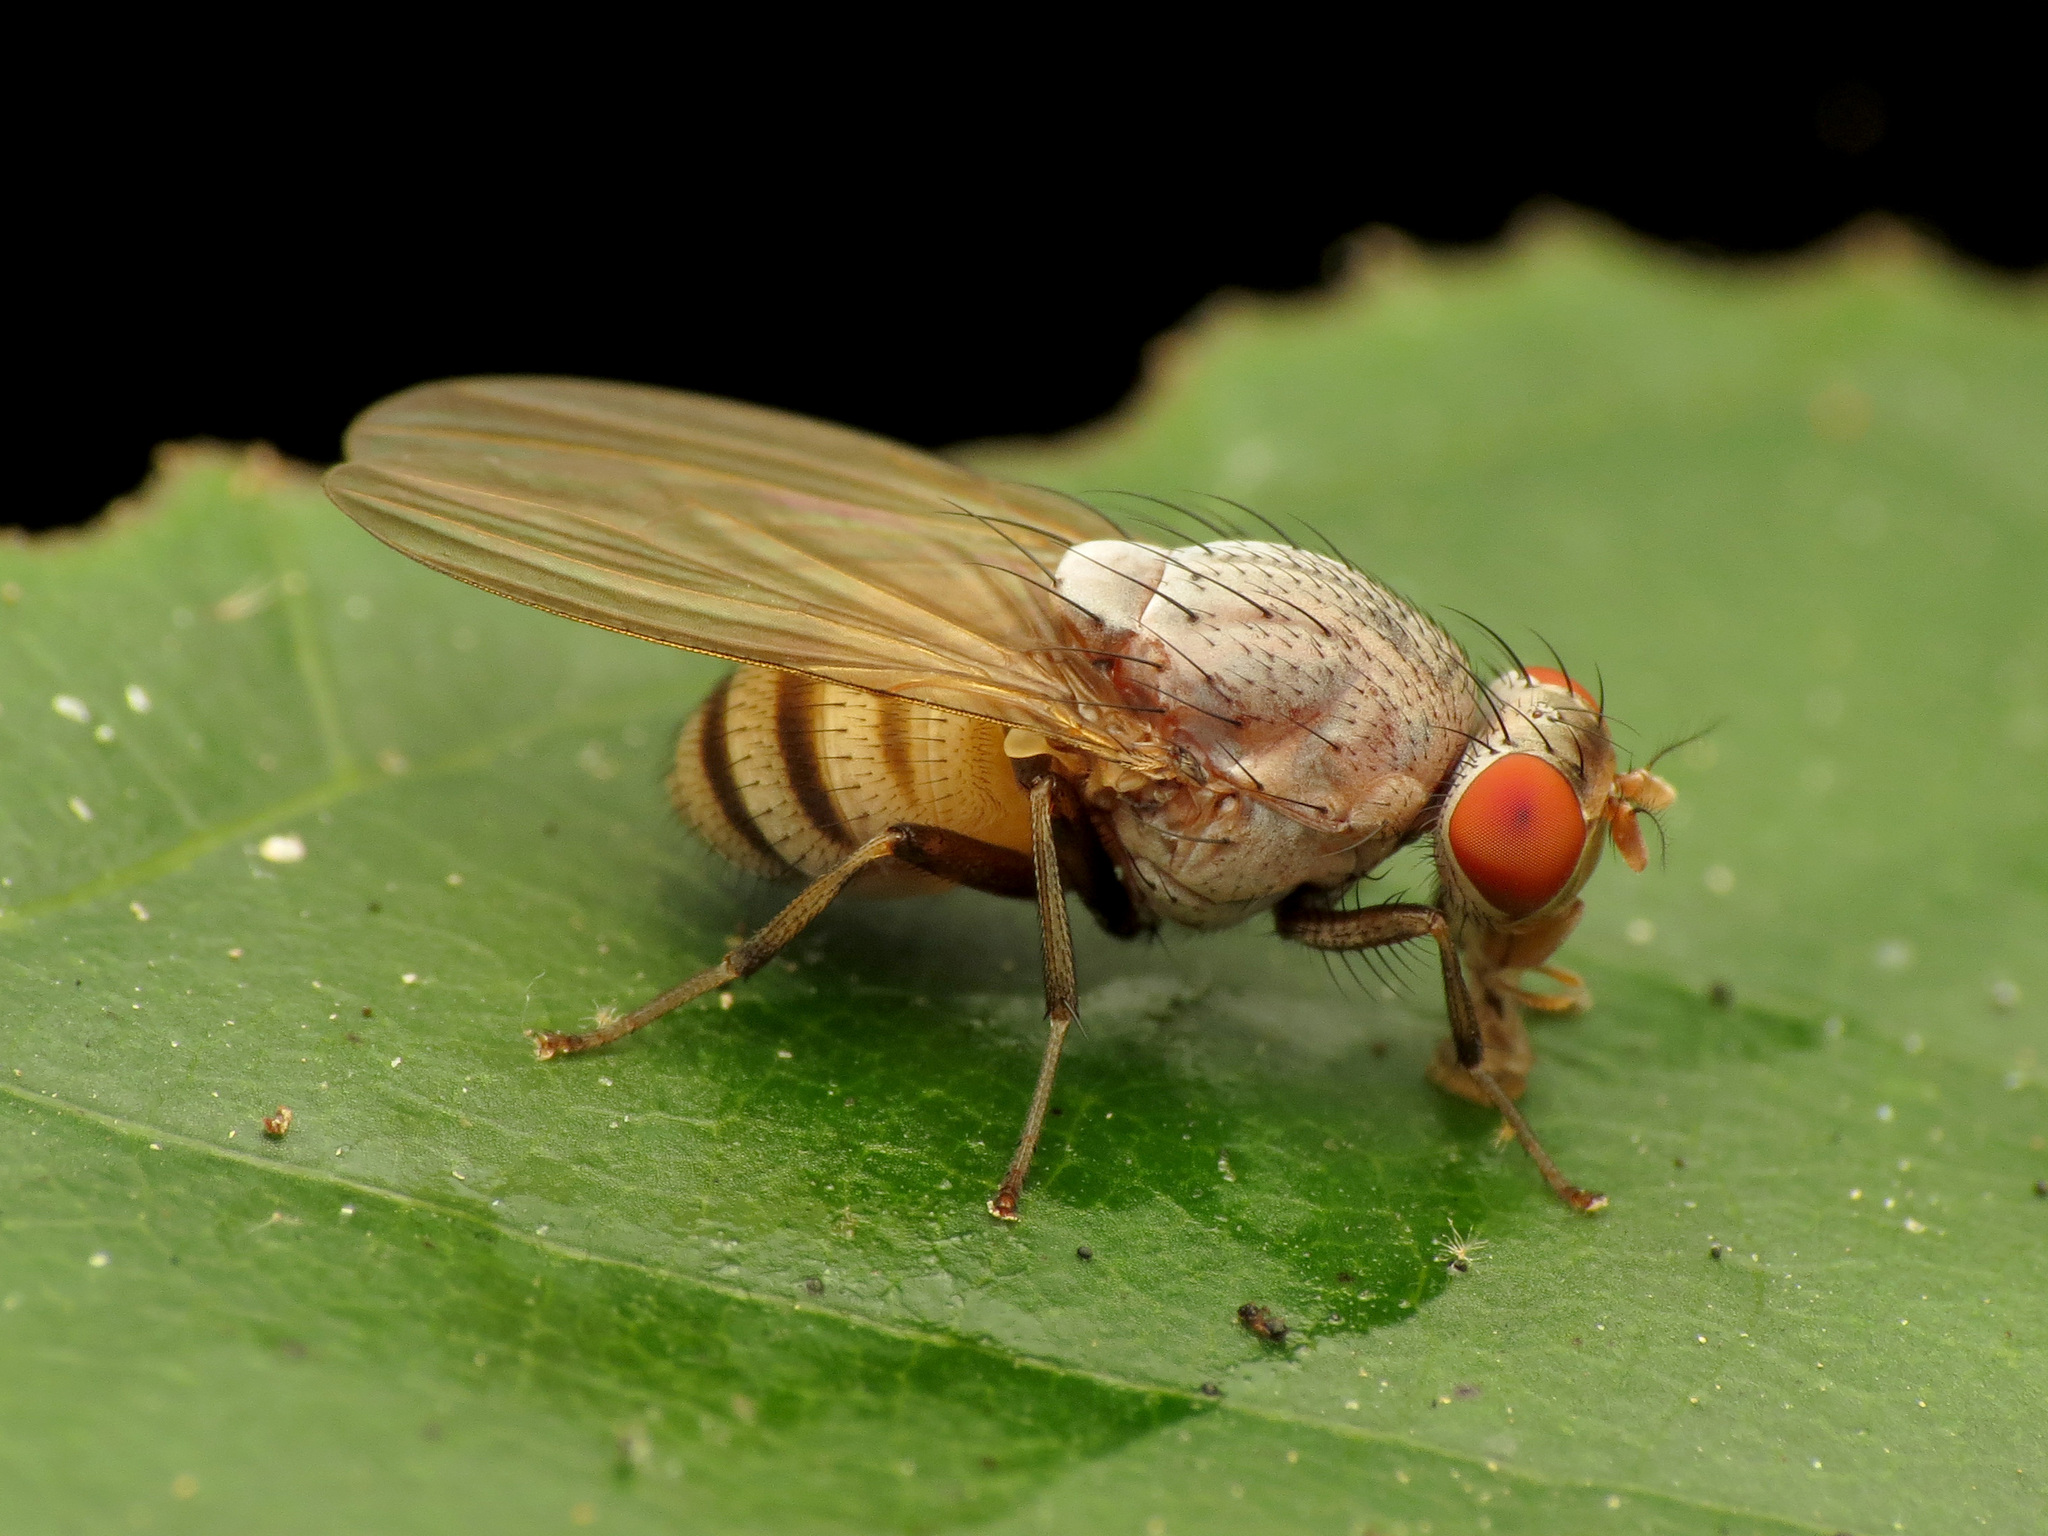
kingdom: Animalia
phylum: Arthropoda
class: Insecta
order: Diptera
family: Lauxaniidae
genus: Minettia
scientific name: Minettia magna
